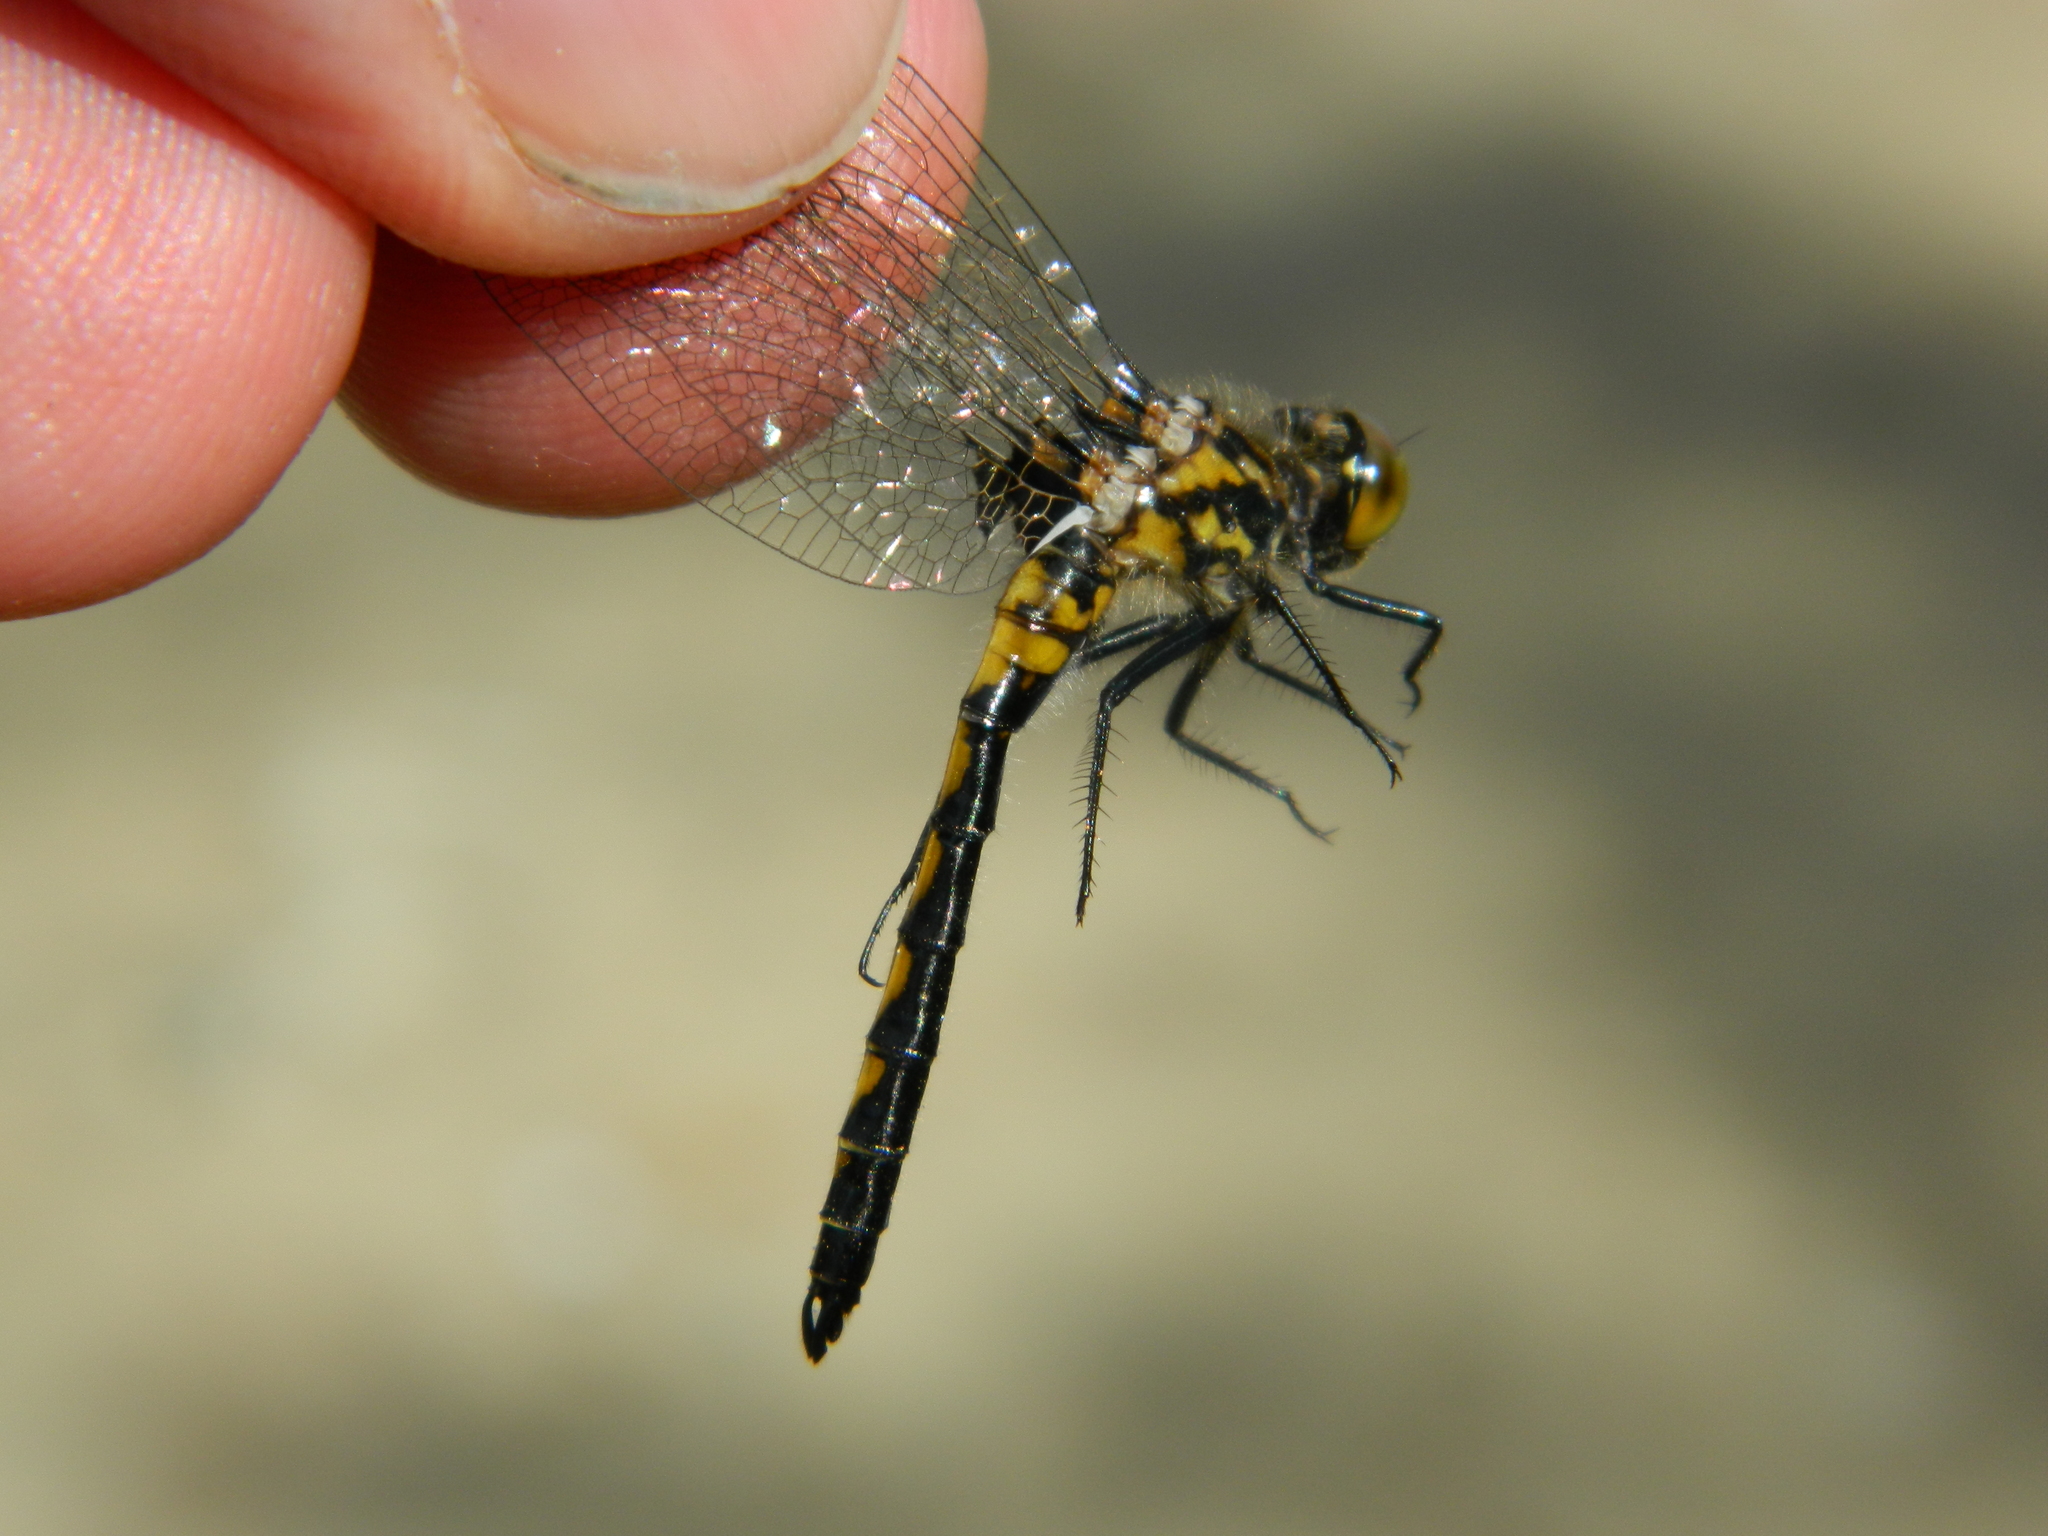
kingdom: Animalia
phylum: Arthropoda
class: Insecta
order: Odonata
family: Libellulidae
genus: Leucorrhinia
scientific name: Leucorrhinia hudsonica
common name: Hudsonian whiteface
